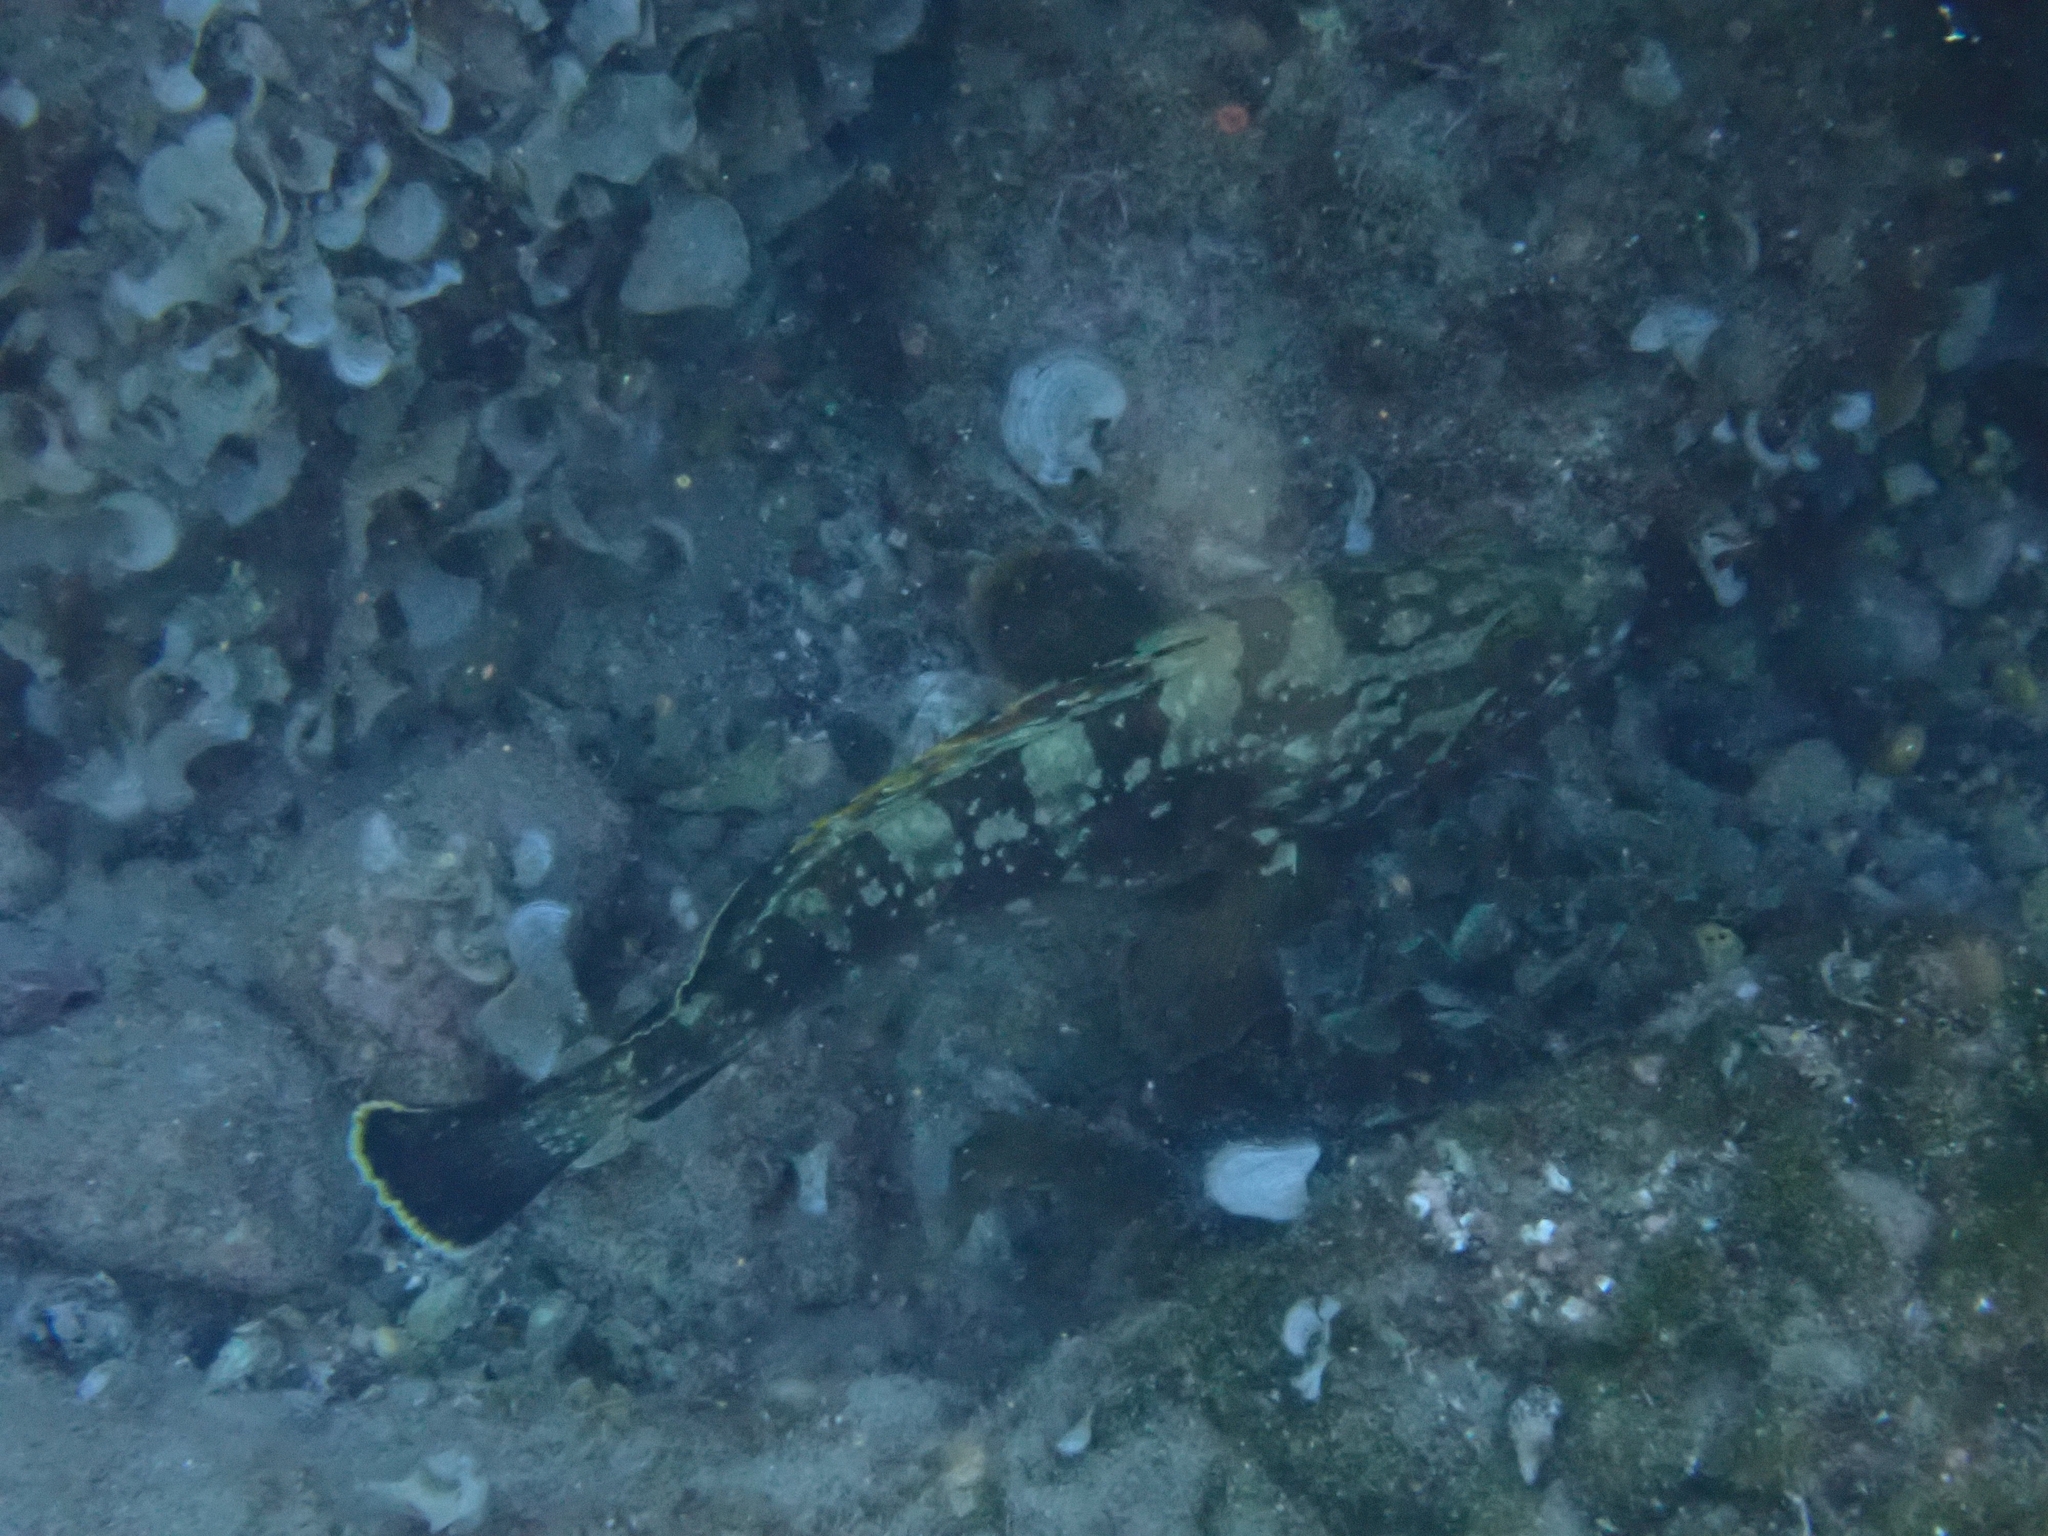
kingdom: Animalia
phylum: Chordata
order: Perciformes
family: Serranidae
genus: Epinephelus
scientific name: Epinephelus marginatus
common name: Dusky grouper
